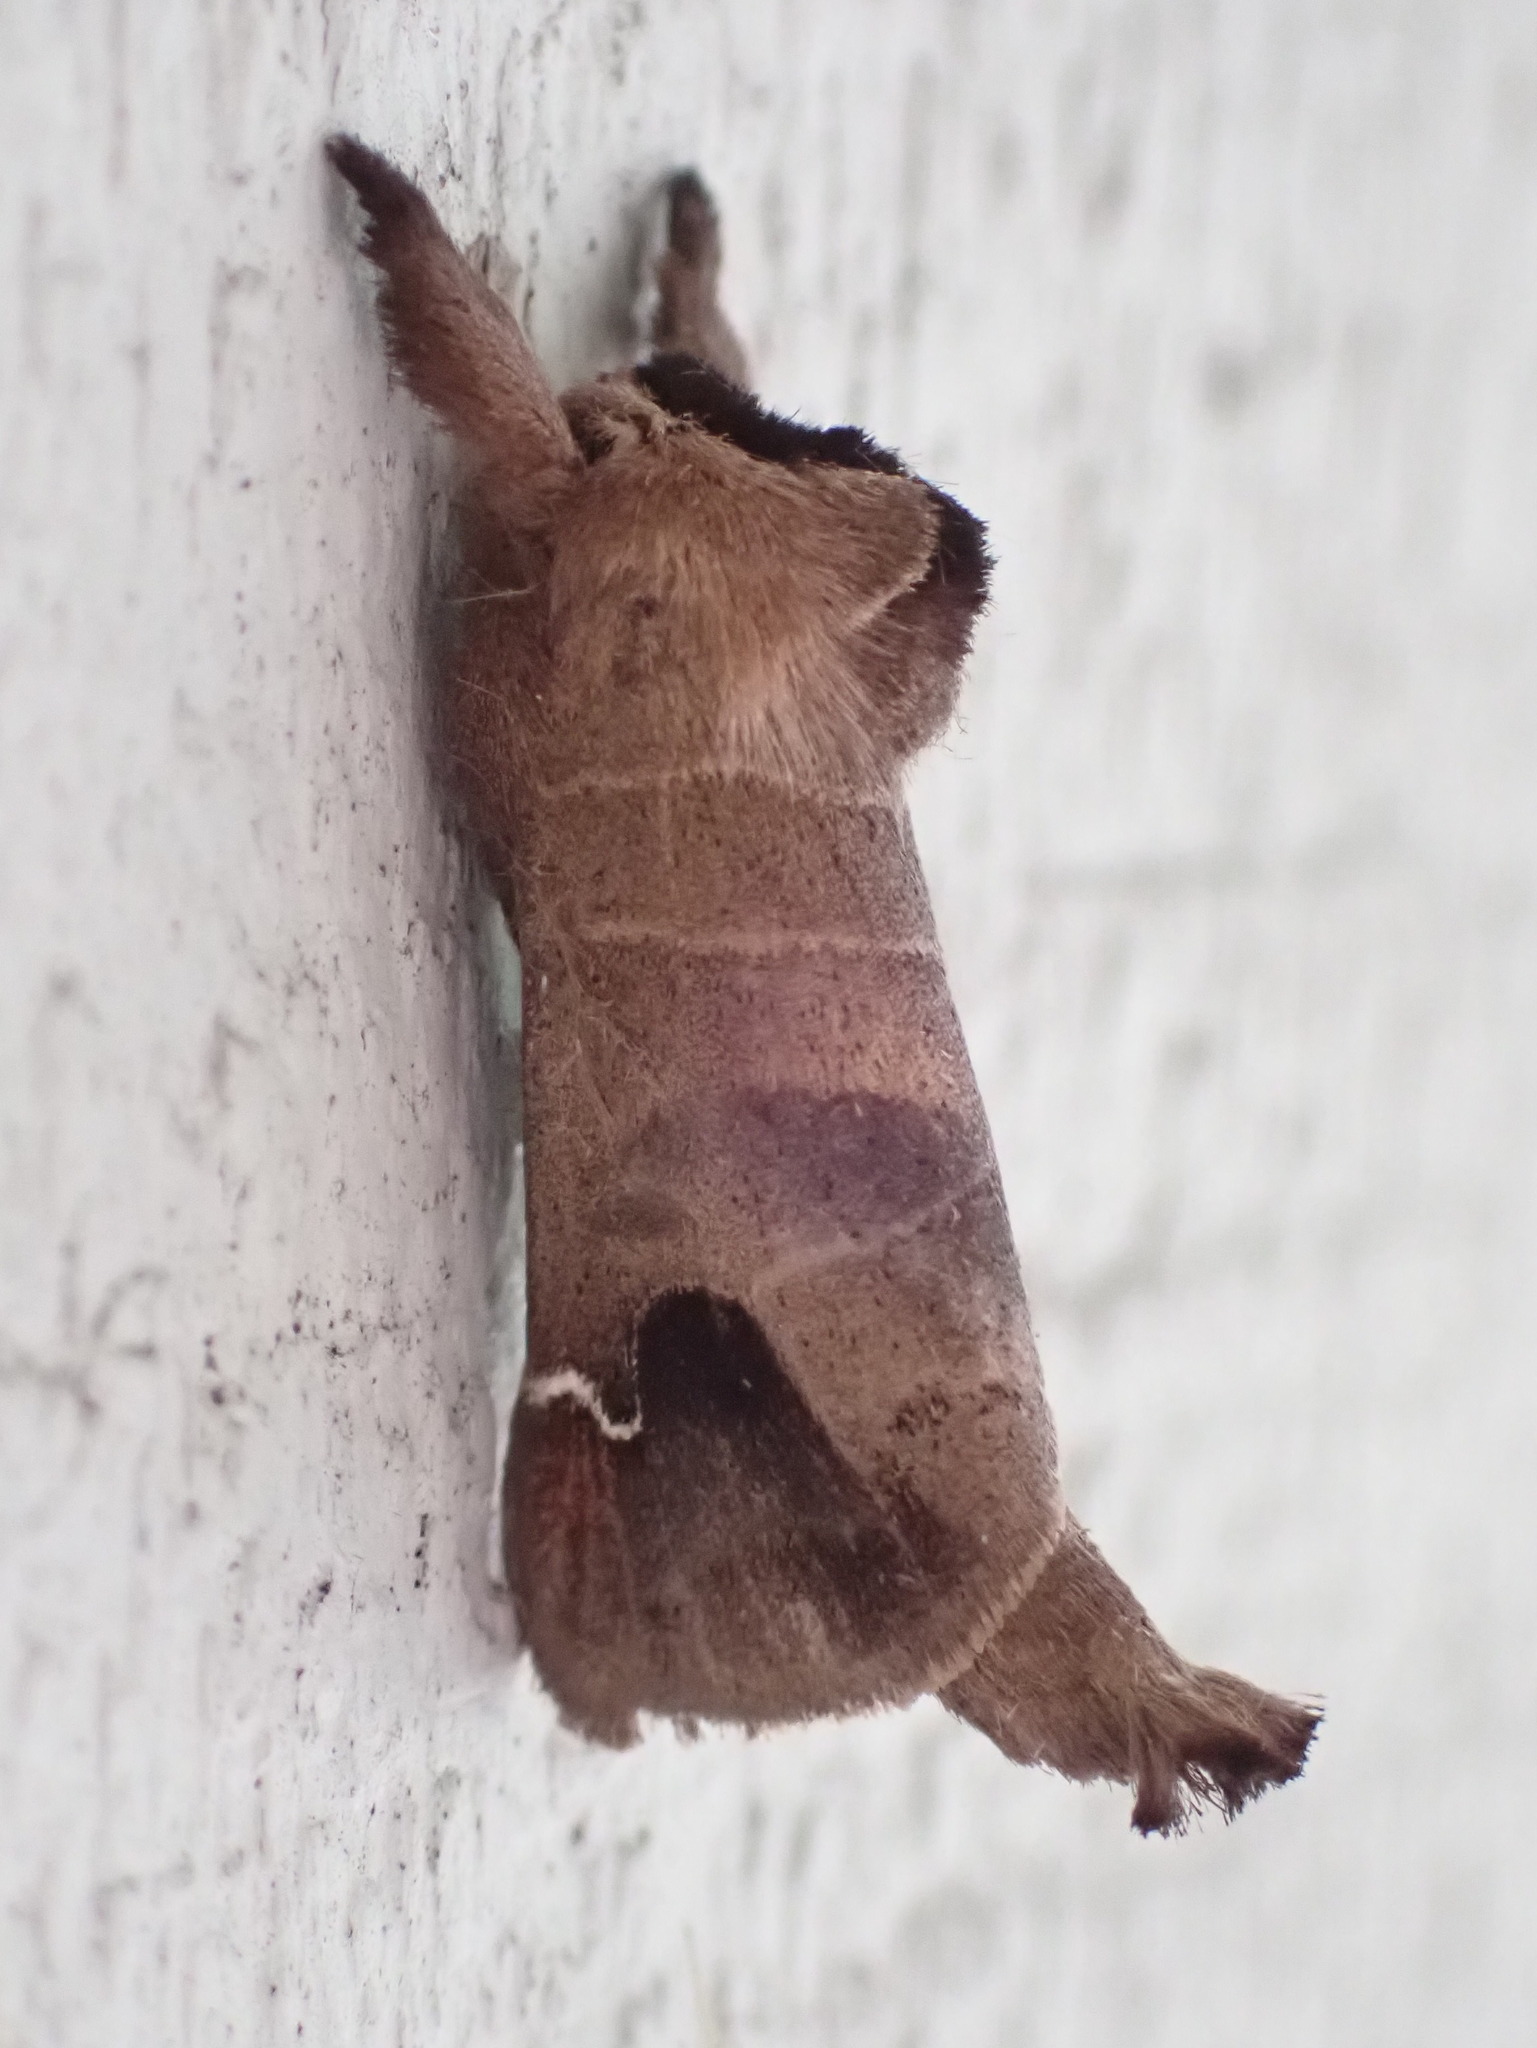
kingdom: Animalia
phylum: Arthropoda
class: Insecta
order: Lepidoptera
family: Notodontidae
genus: Clostera
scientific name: Clostera albosigma
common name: Sigmoid prominent
